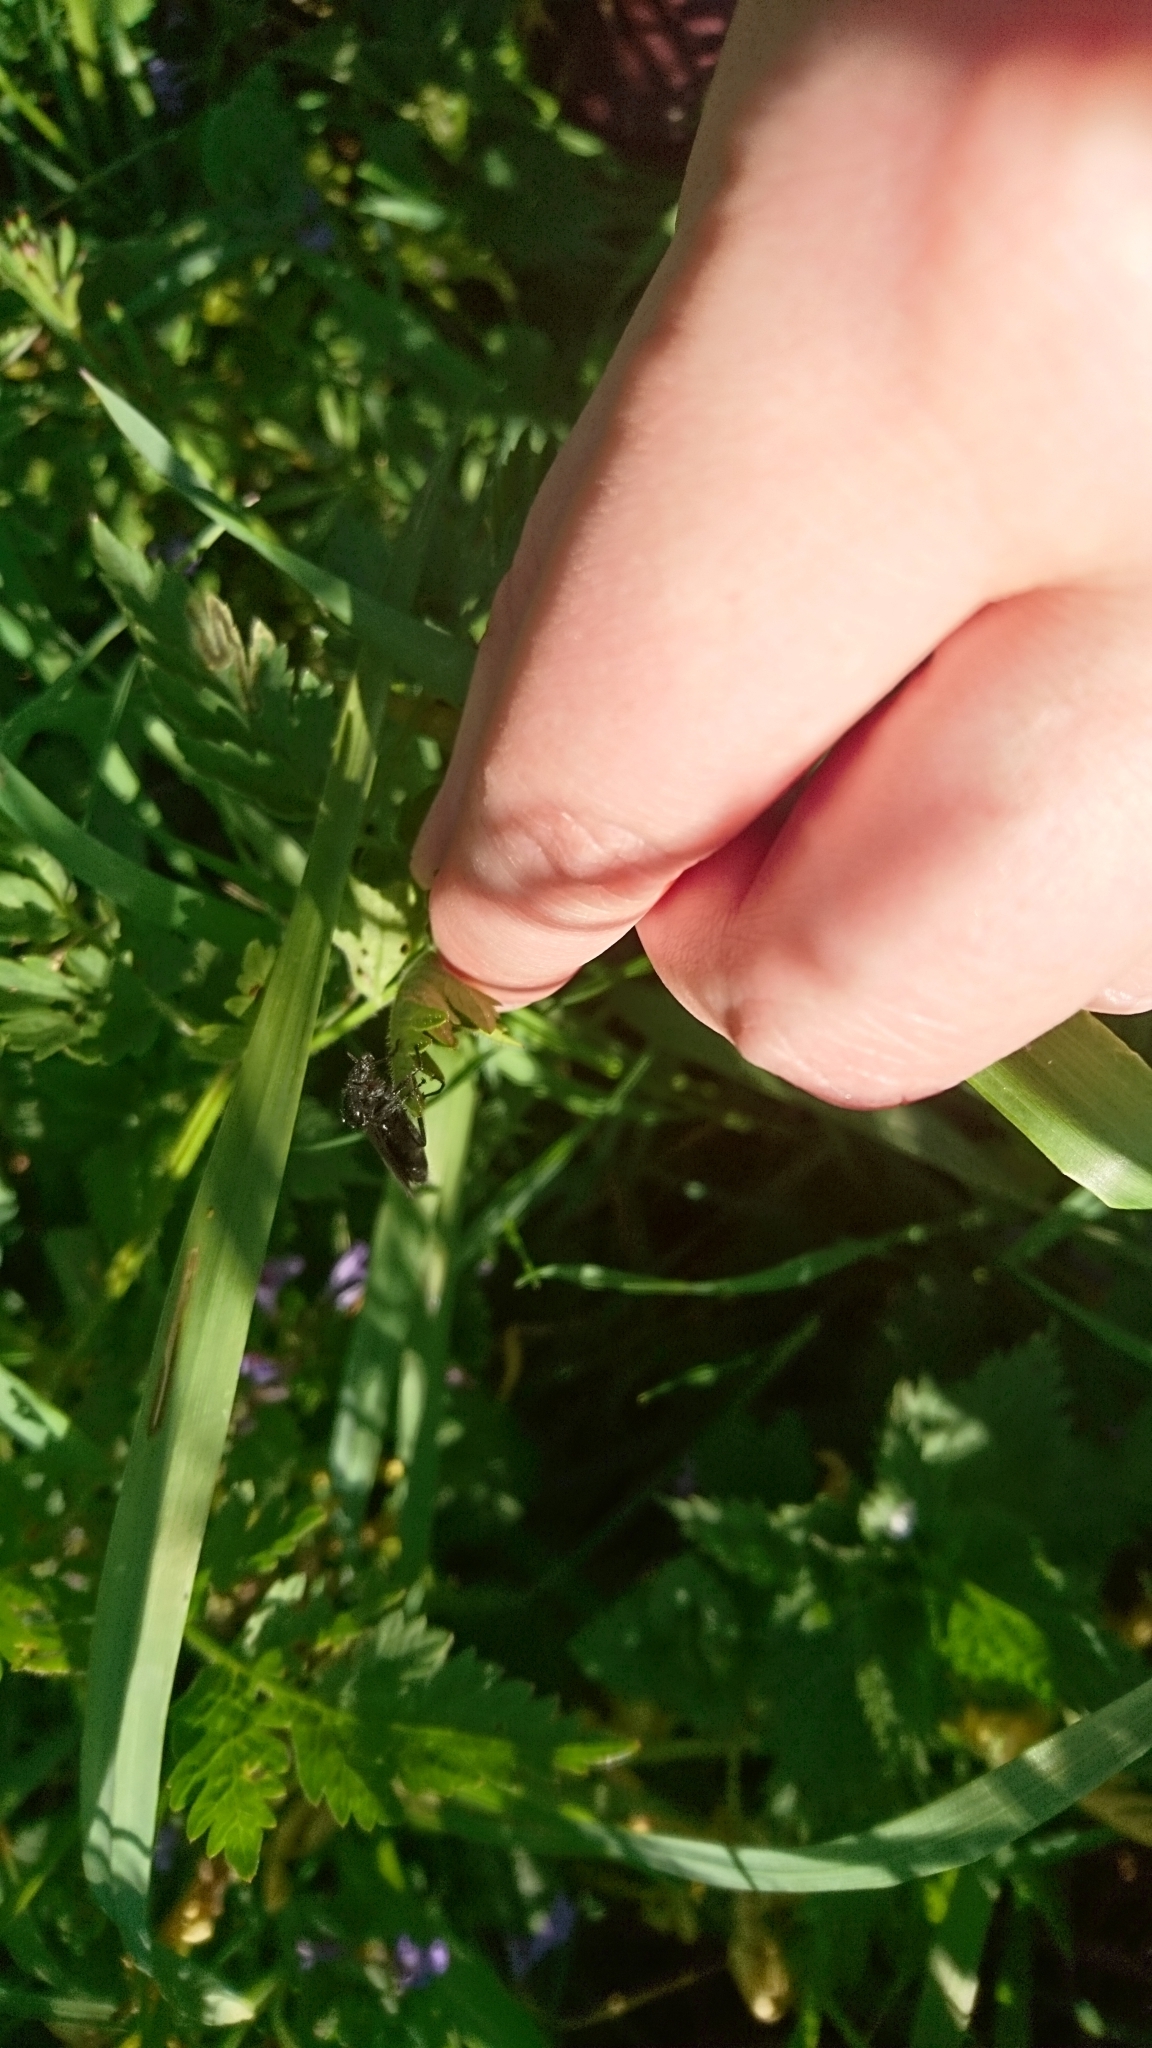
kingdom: Animalia
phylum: Arthropoda
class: Insecta
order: Diptera
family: Bibionidae
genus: Bibio
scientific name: Bibio marci
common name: St marks fly
